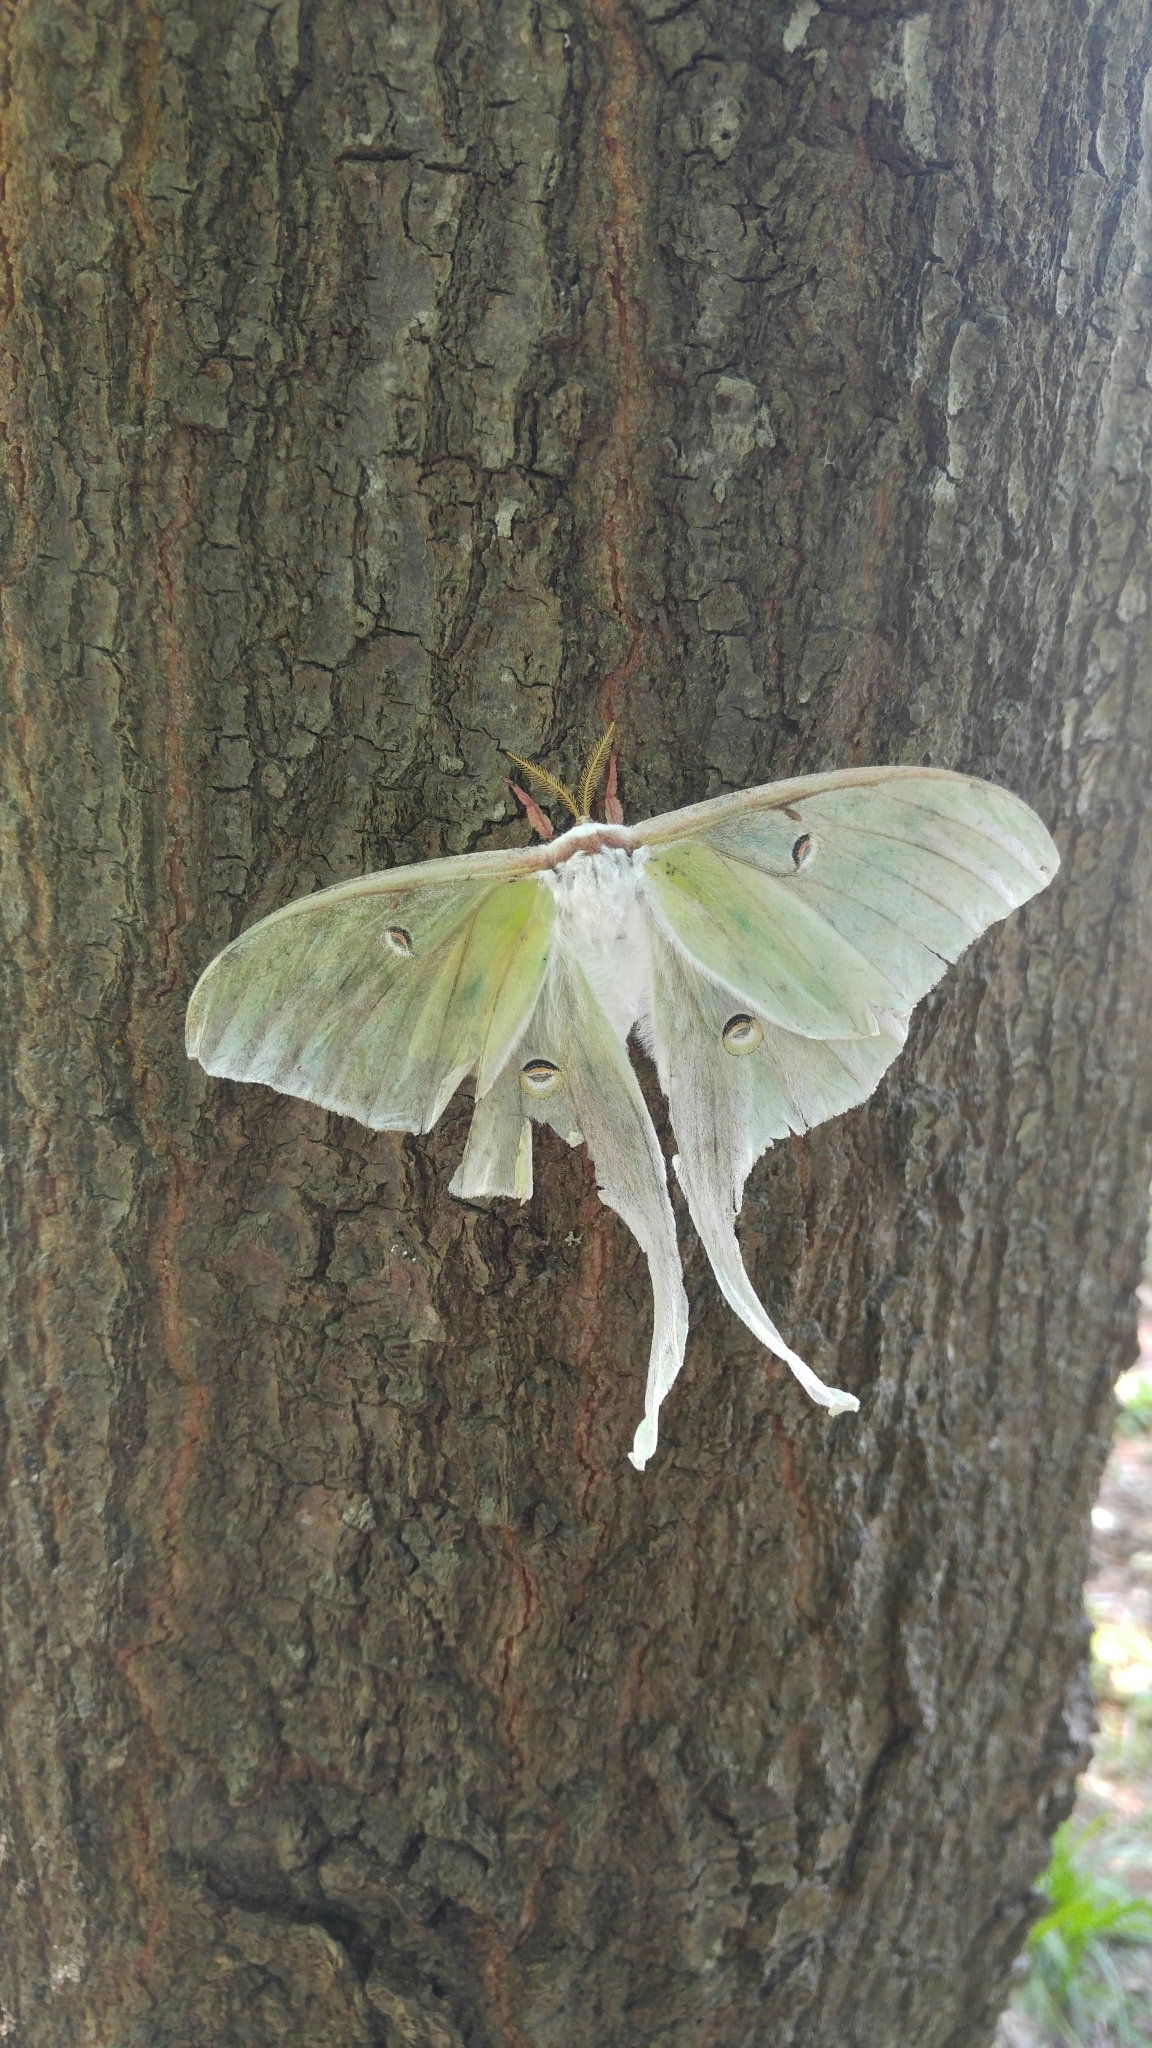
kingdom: Animalia
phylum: Arthropoda
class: Insecta
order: Lepidoptera
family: Saturniidae
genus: Actias
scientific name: Actias luna
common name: Luna moth
